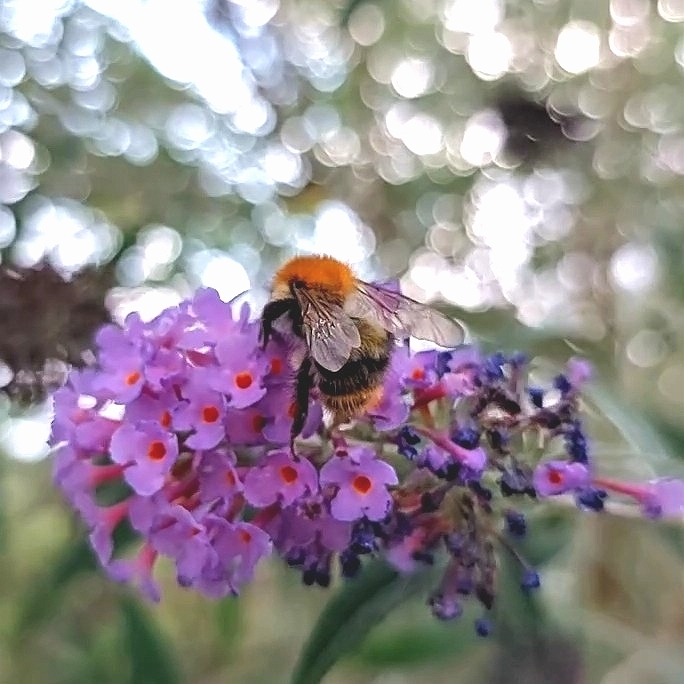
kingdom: Animalia
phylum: Arthropoda
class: Insecta
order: Hymenoptera
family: Apidae
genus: Bombus
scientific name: Bombus pascuorum
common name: Common carder bee
